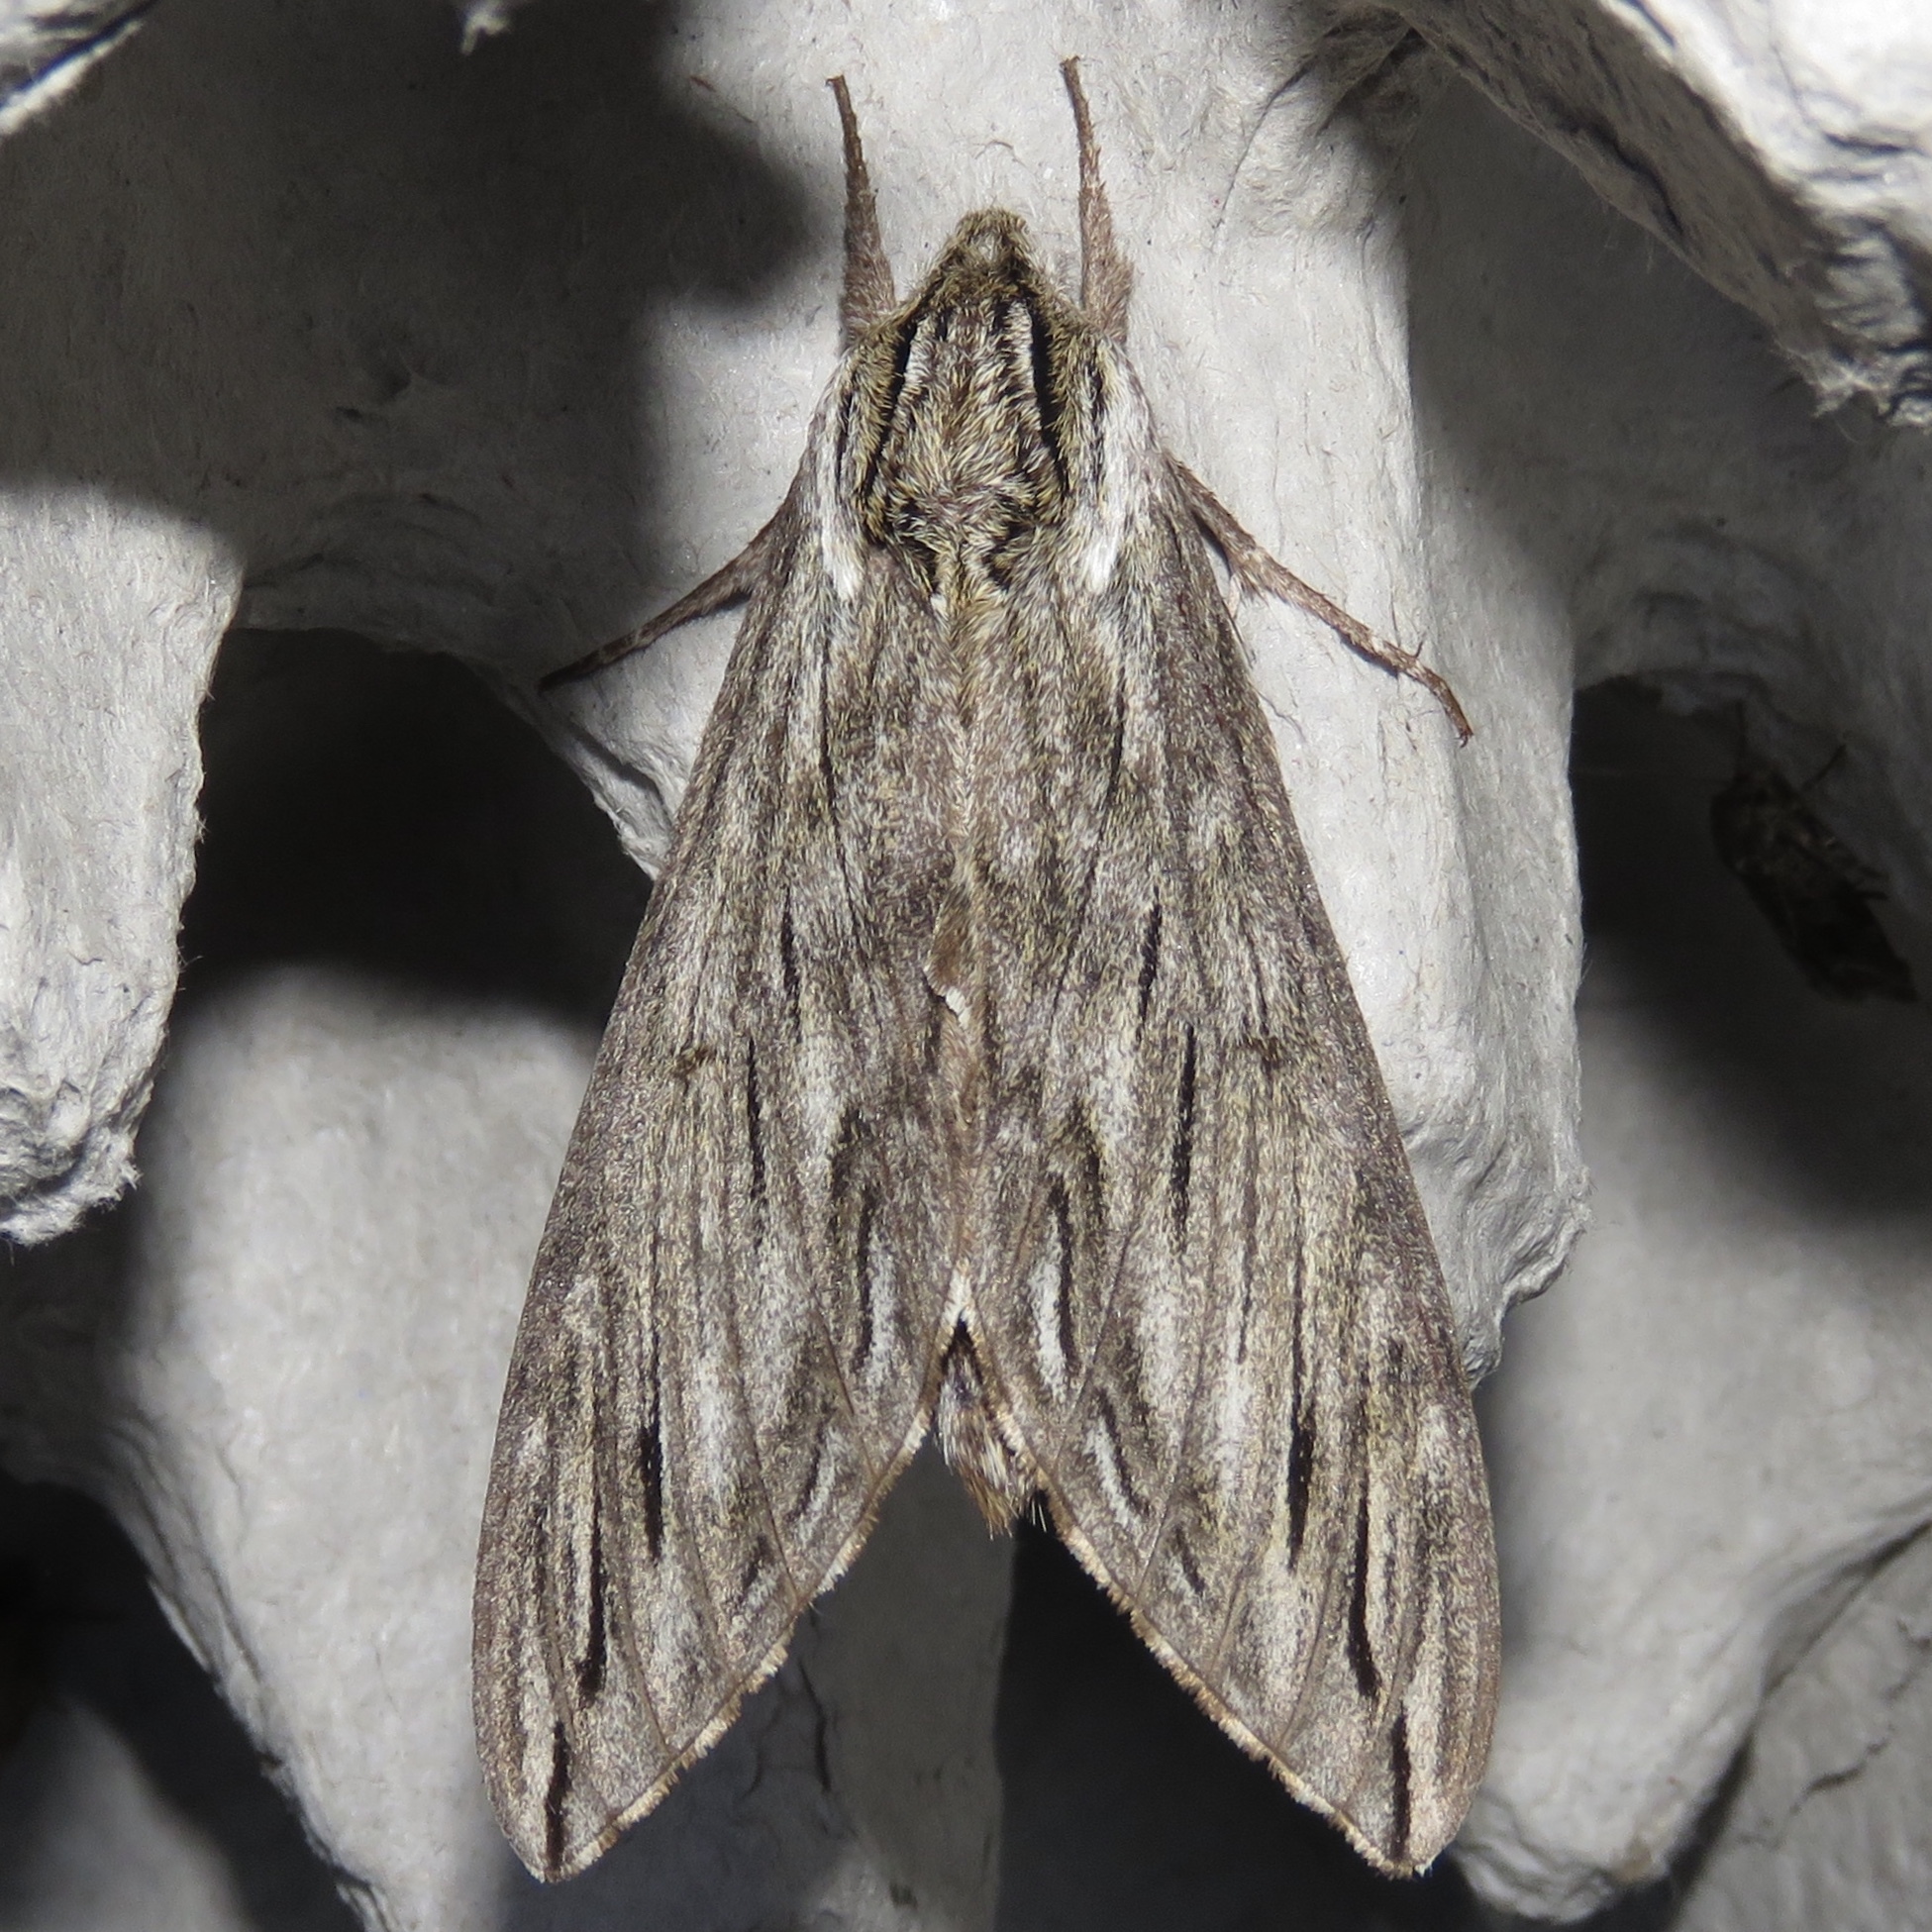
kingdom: Animalia
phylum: Arthropoda
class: Insecta
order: Lepidoptera
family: Sphingidae
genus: Sphinx
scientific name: Sphinx canadensis
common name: Canadian sphinx
